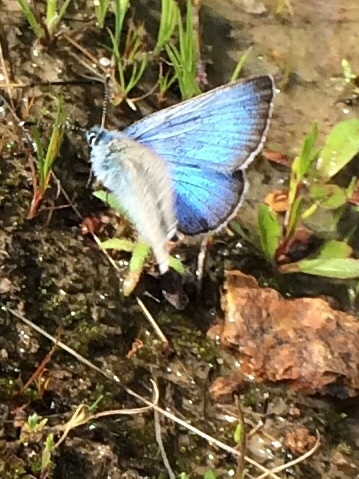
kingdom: Animalia
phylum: Arthropoda
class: Insecta
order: Lepidoptera
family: Lycaenidae
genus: Glaucopsyche
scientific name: Glaucopsyche lygdamus
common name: Silvery blue
